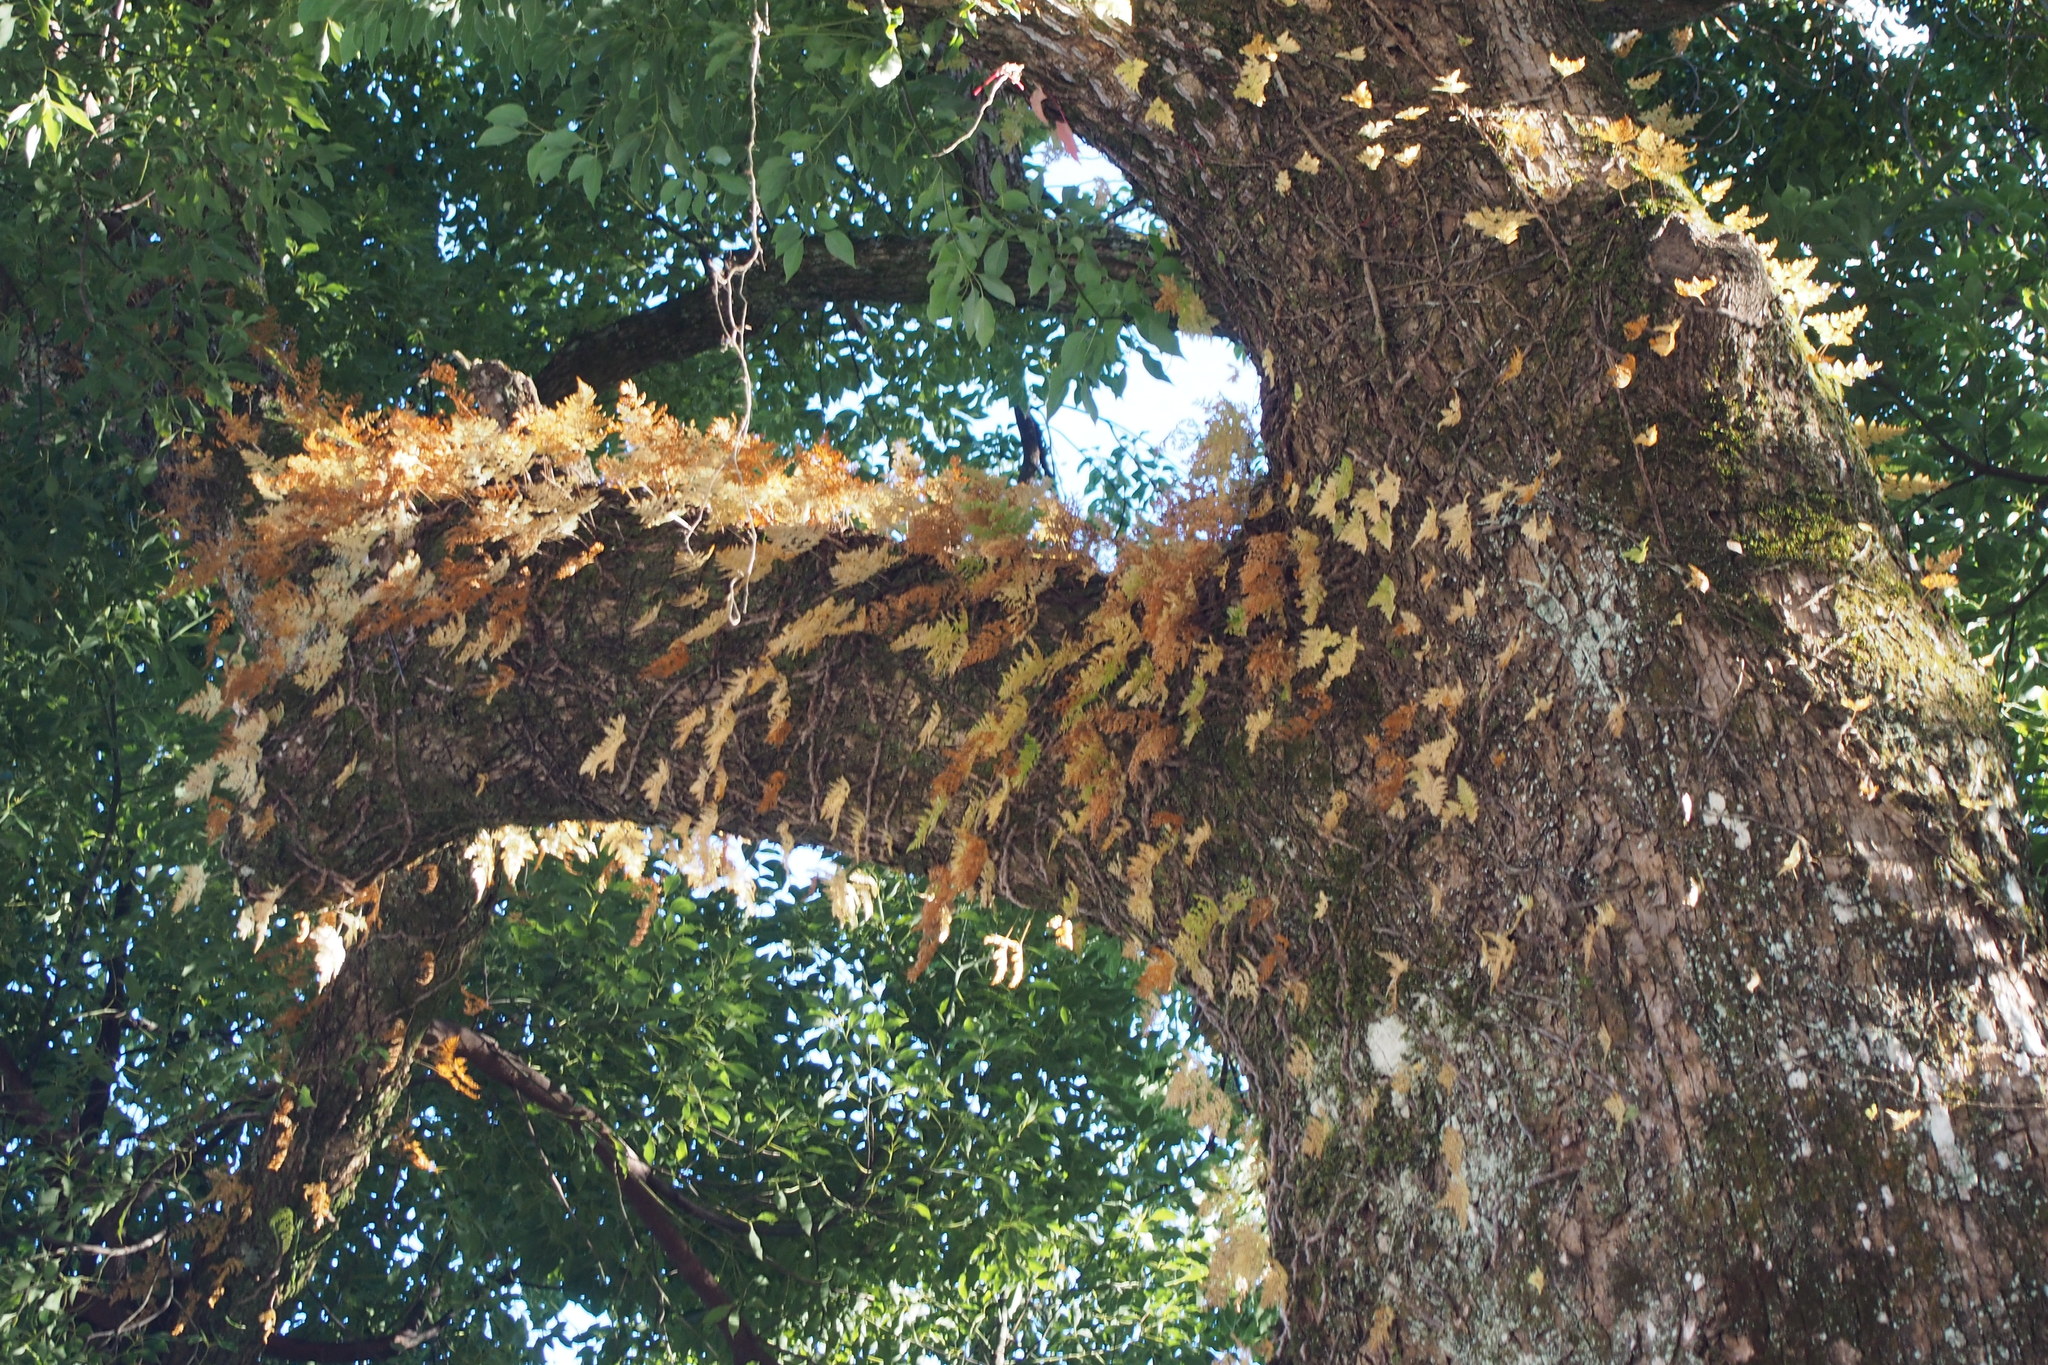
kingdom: Plantae
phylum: Tracheophyta
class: Polypodiopsida
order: Polypodiales
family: Davalliaceae
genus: Davallia
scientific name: Davallia mariesii
